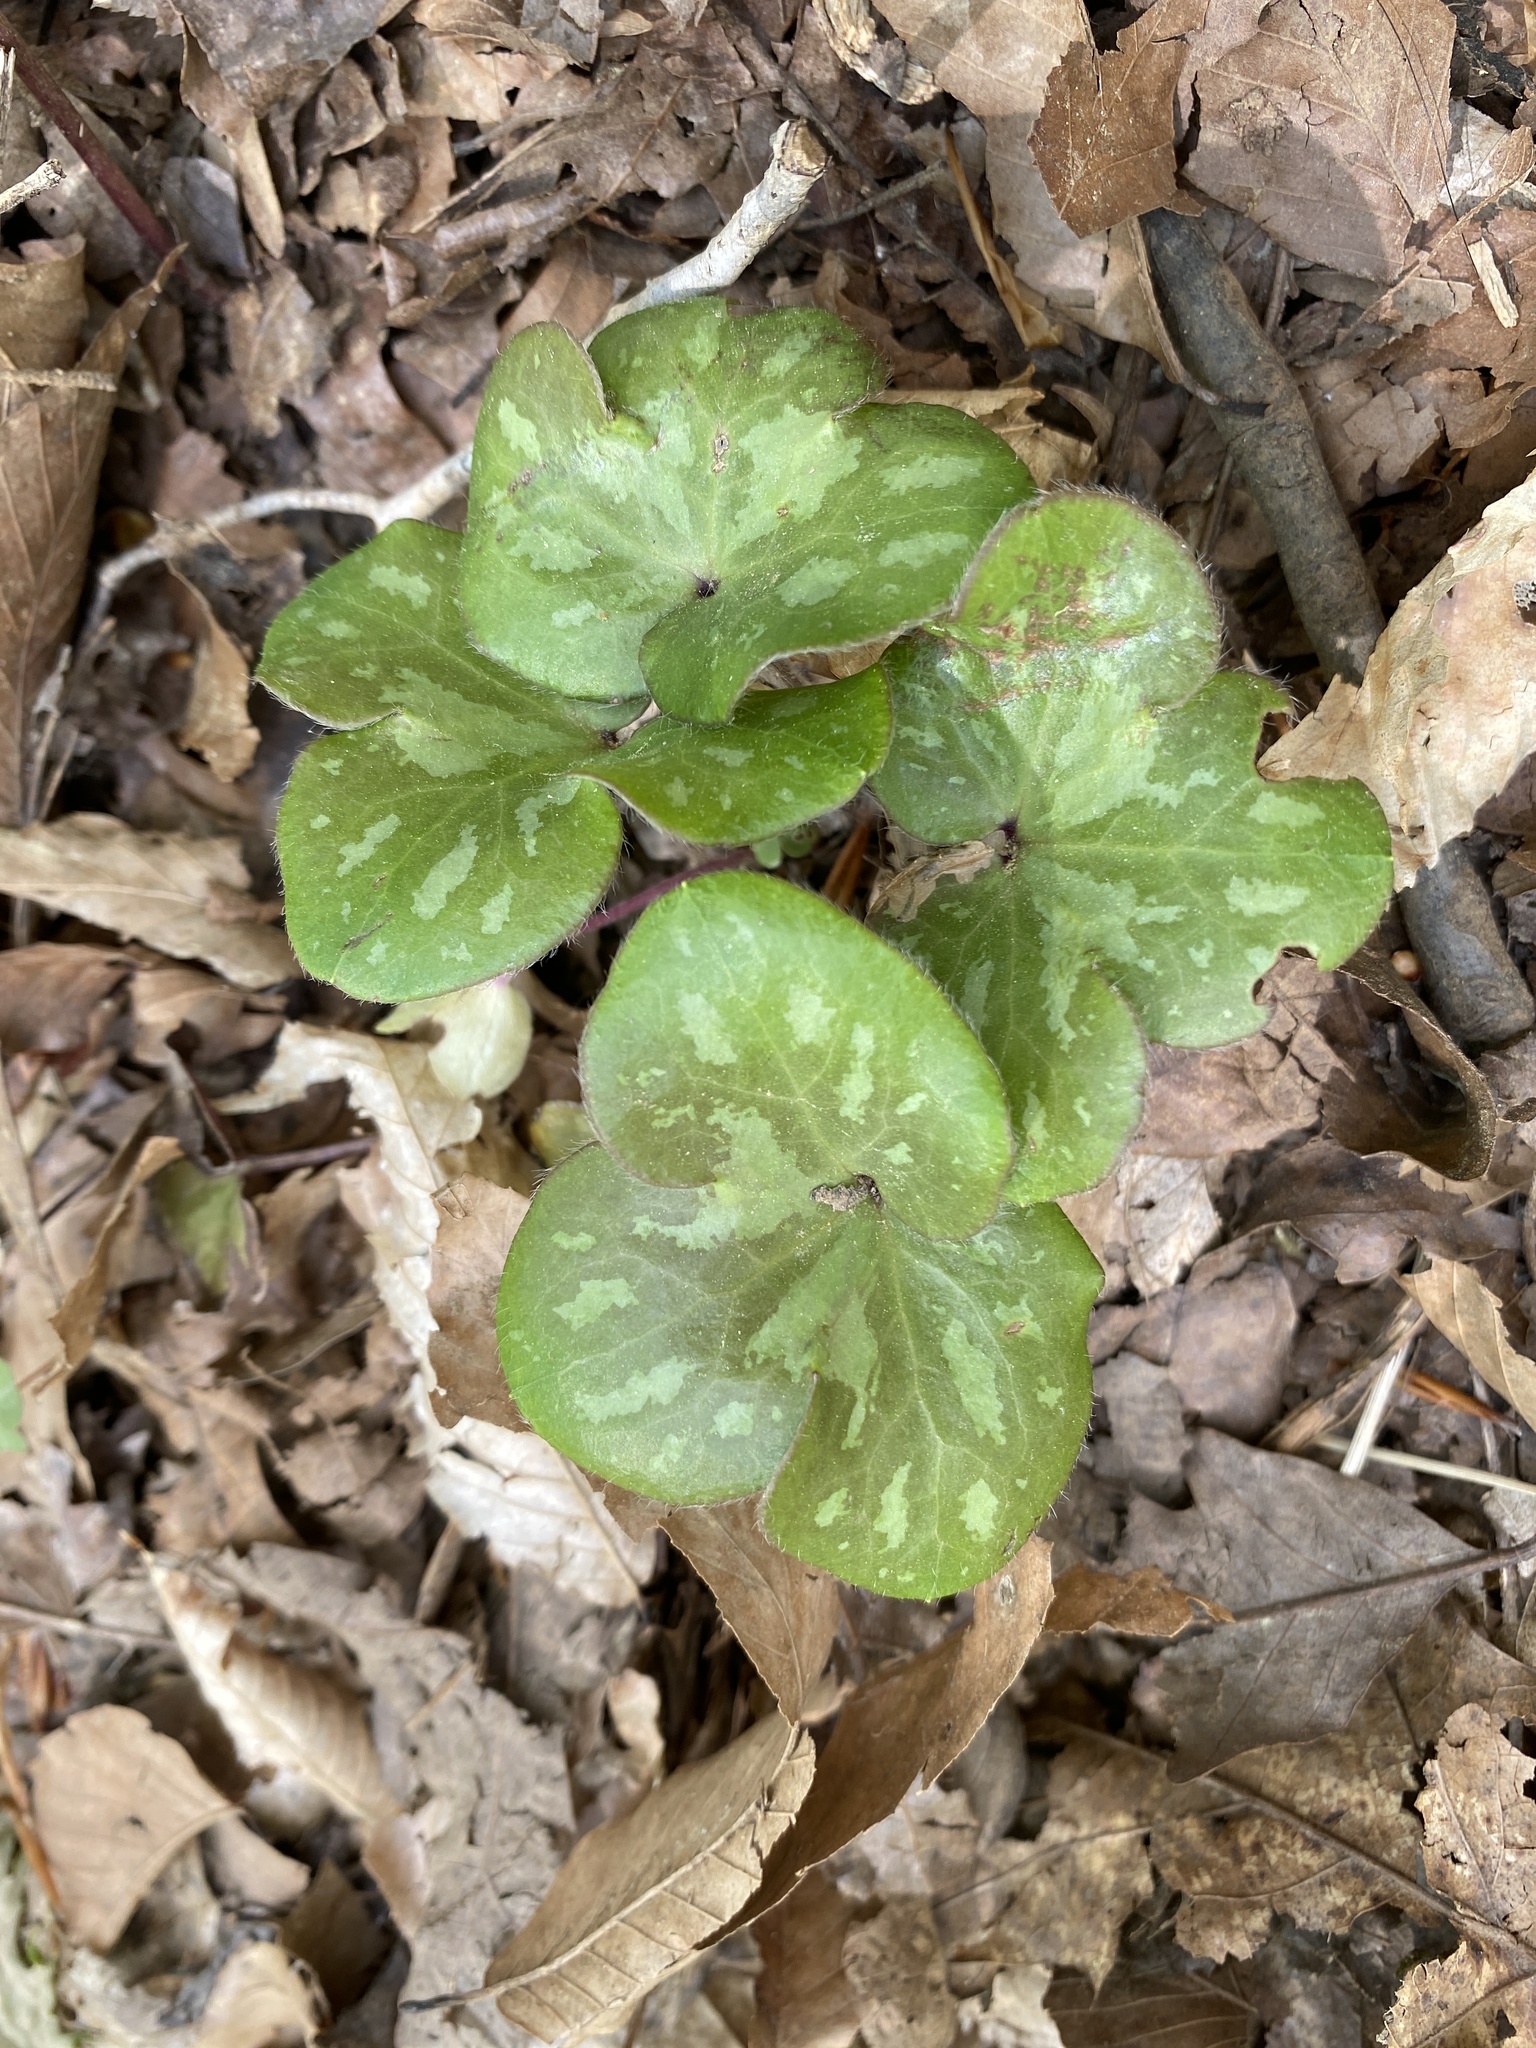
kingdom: Plantae
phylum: Tracheophyta
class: Magnoliopsida
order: Ranunculales
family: Ranunculaceae
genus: Hepatica
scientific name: Hepatica americana
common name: American hepatica
